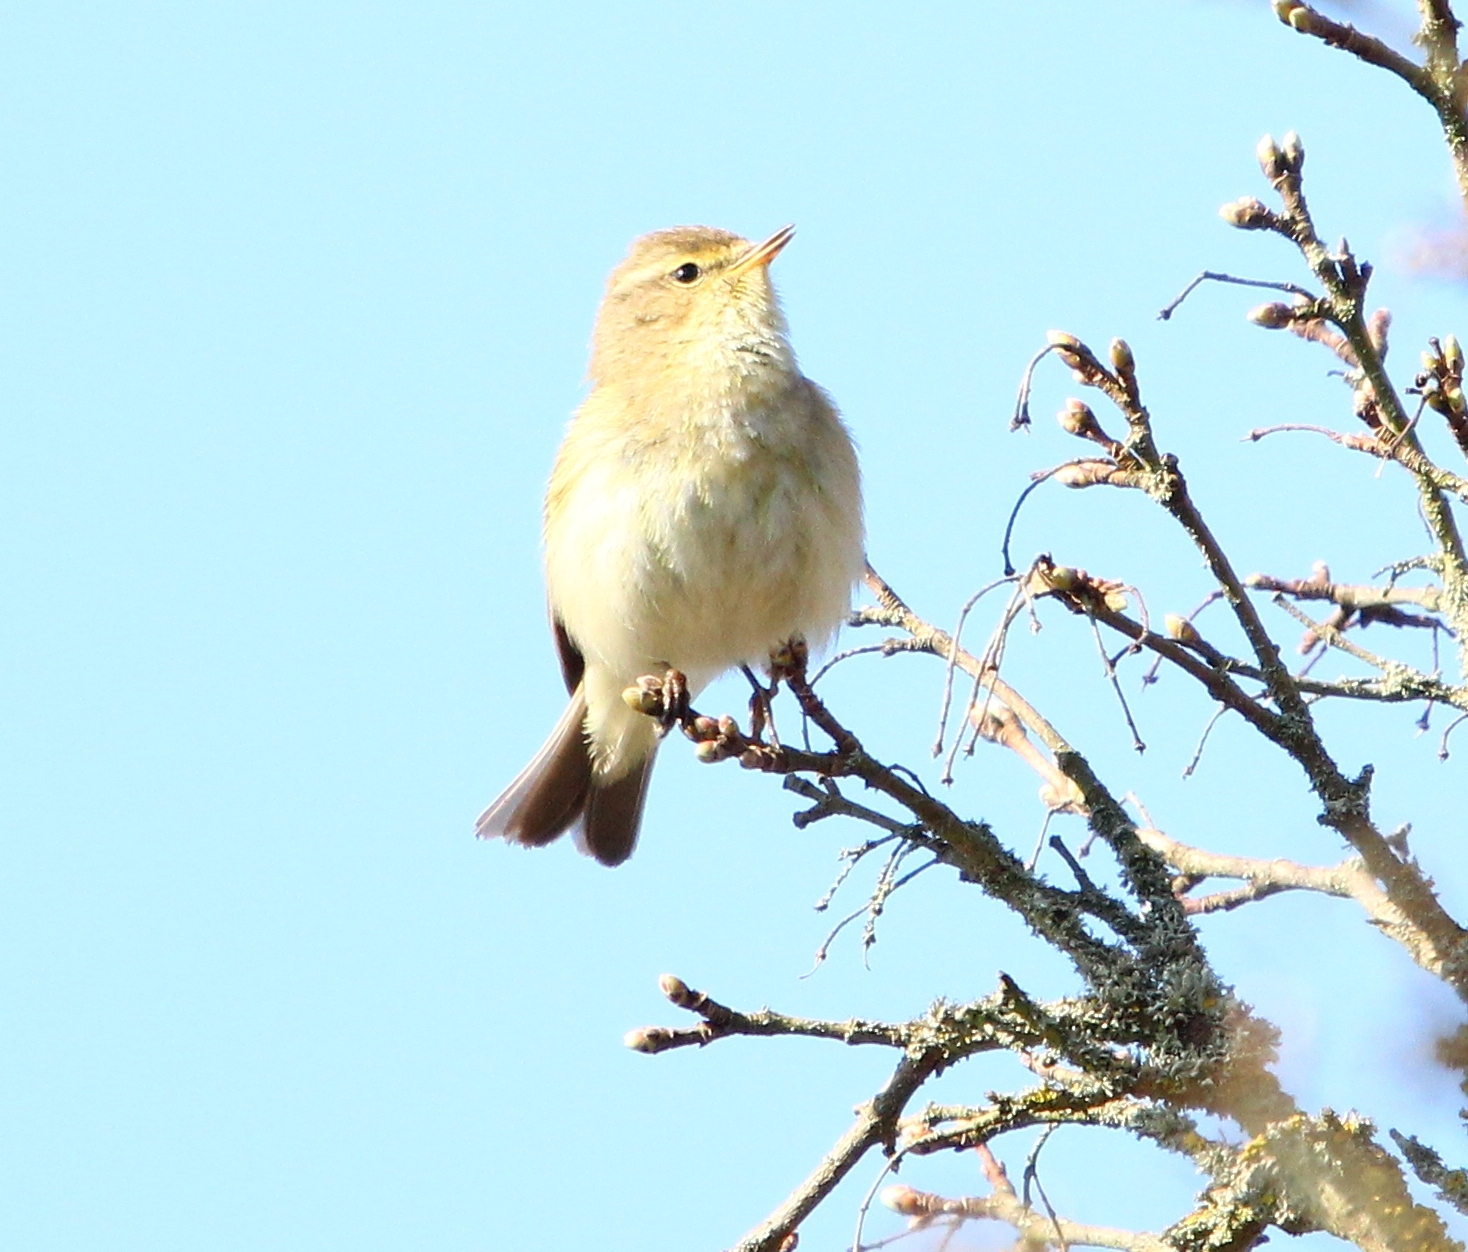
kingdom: Animalia
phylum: Chordata
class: Aves
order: Passeriformes
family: Phylloscopidae
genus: Phylloscopus
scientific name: Phylloscopus collybita
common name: Common chiffchaff
